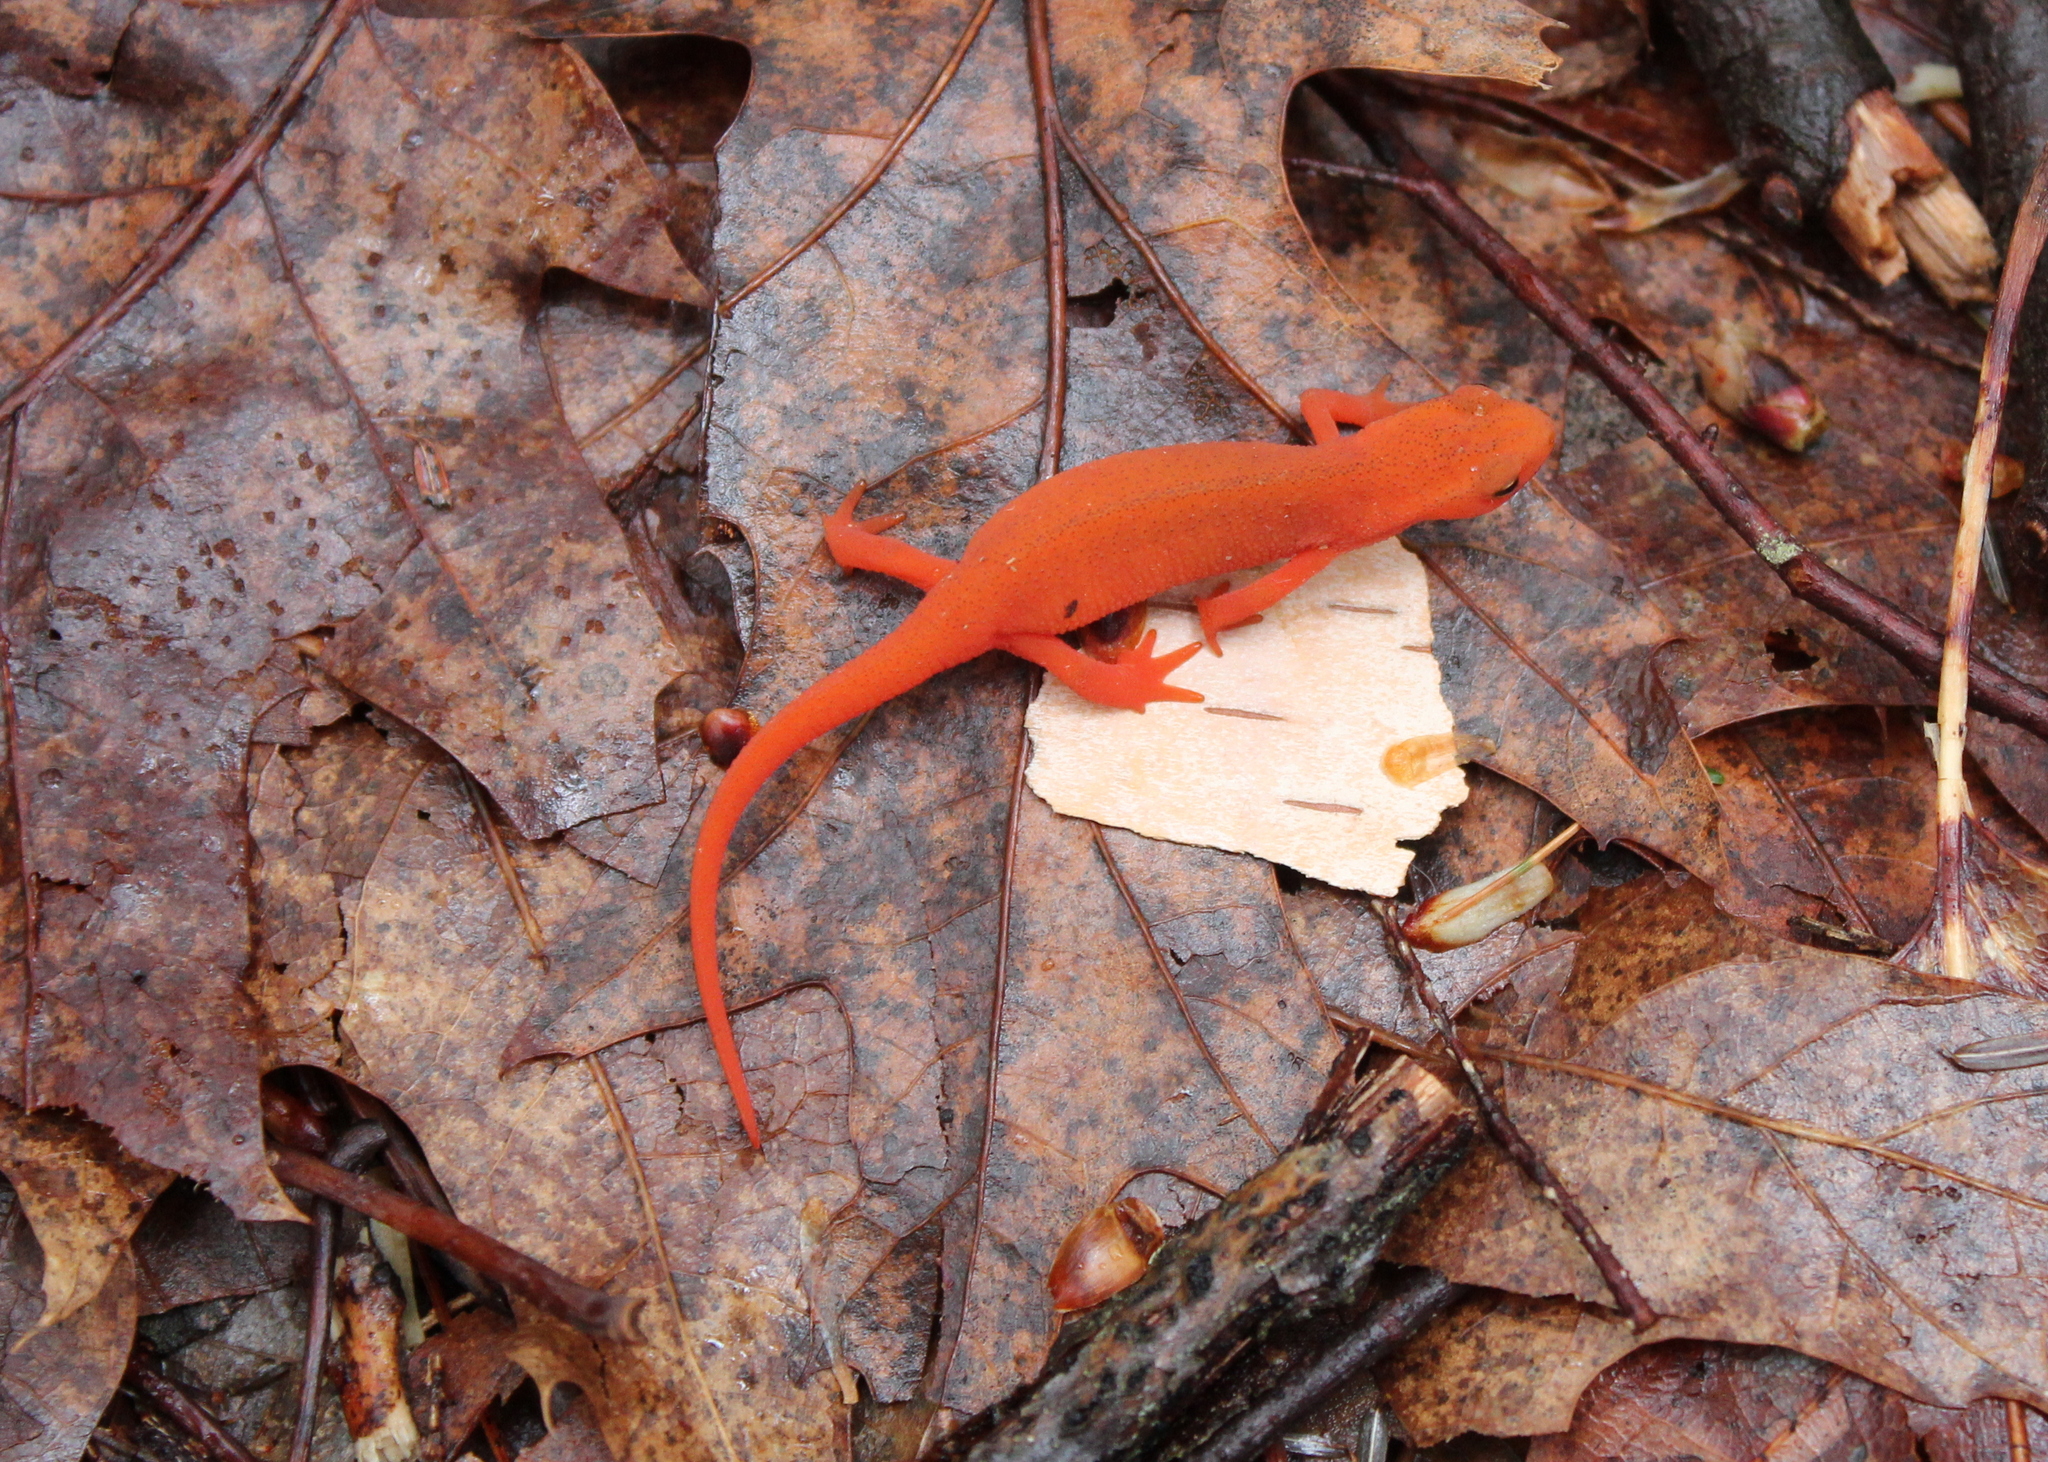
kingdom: Animalia
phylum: Chordata
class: Amphibia
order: Caudata
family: Salamandridae
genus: Notophthalmus
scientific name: Notophthalmus viridescens
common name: Eastern newt
